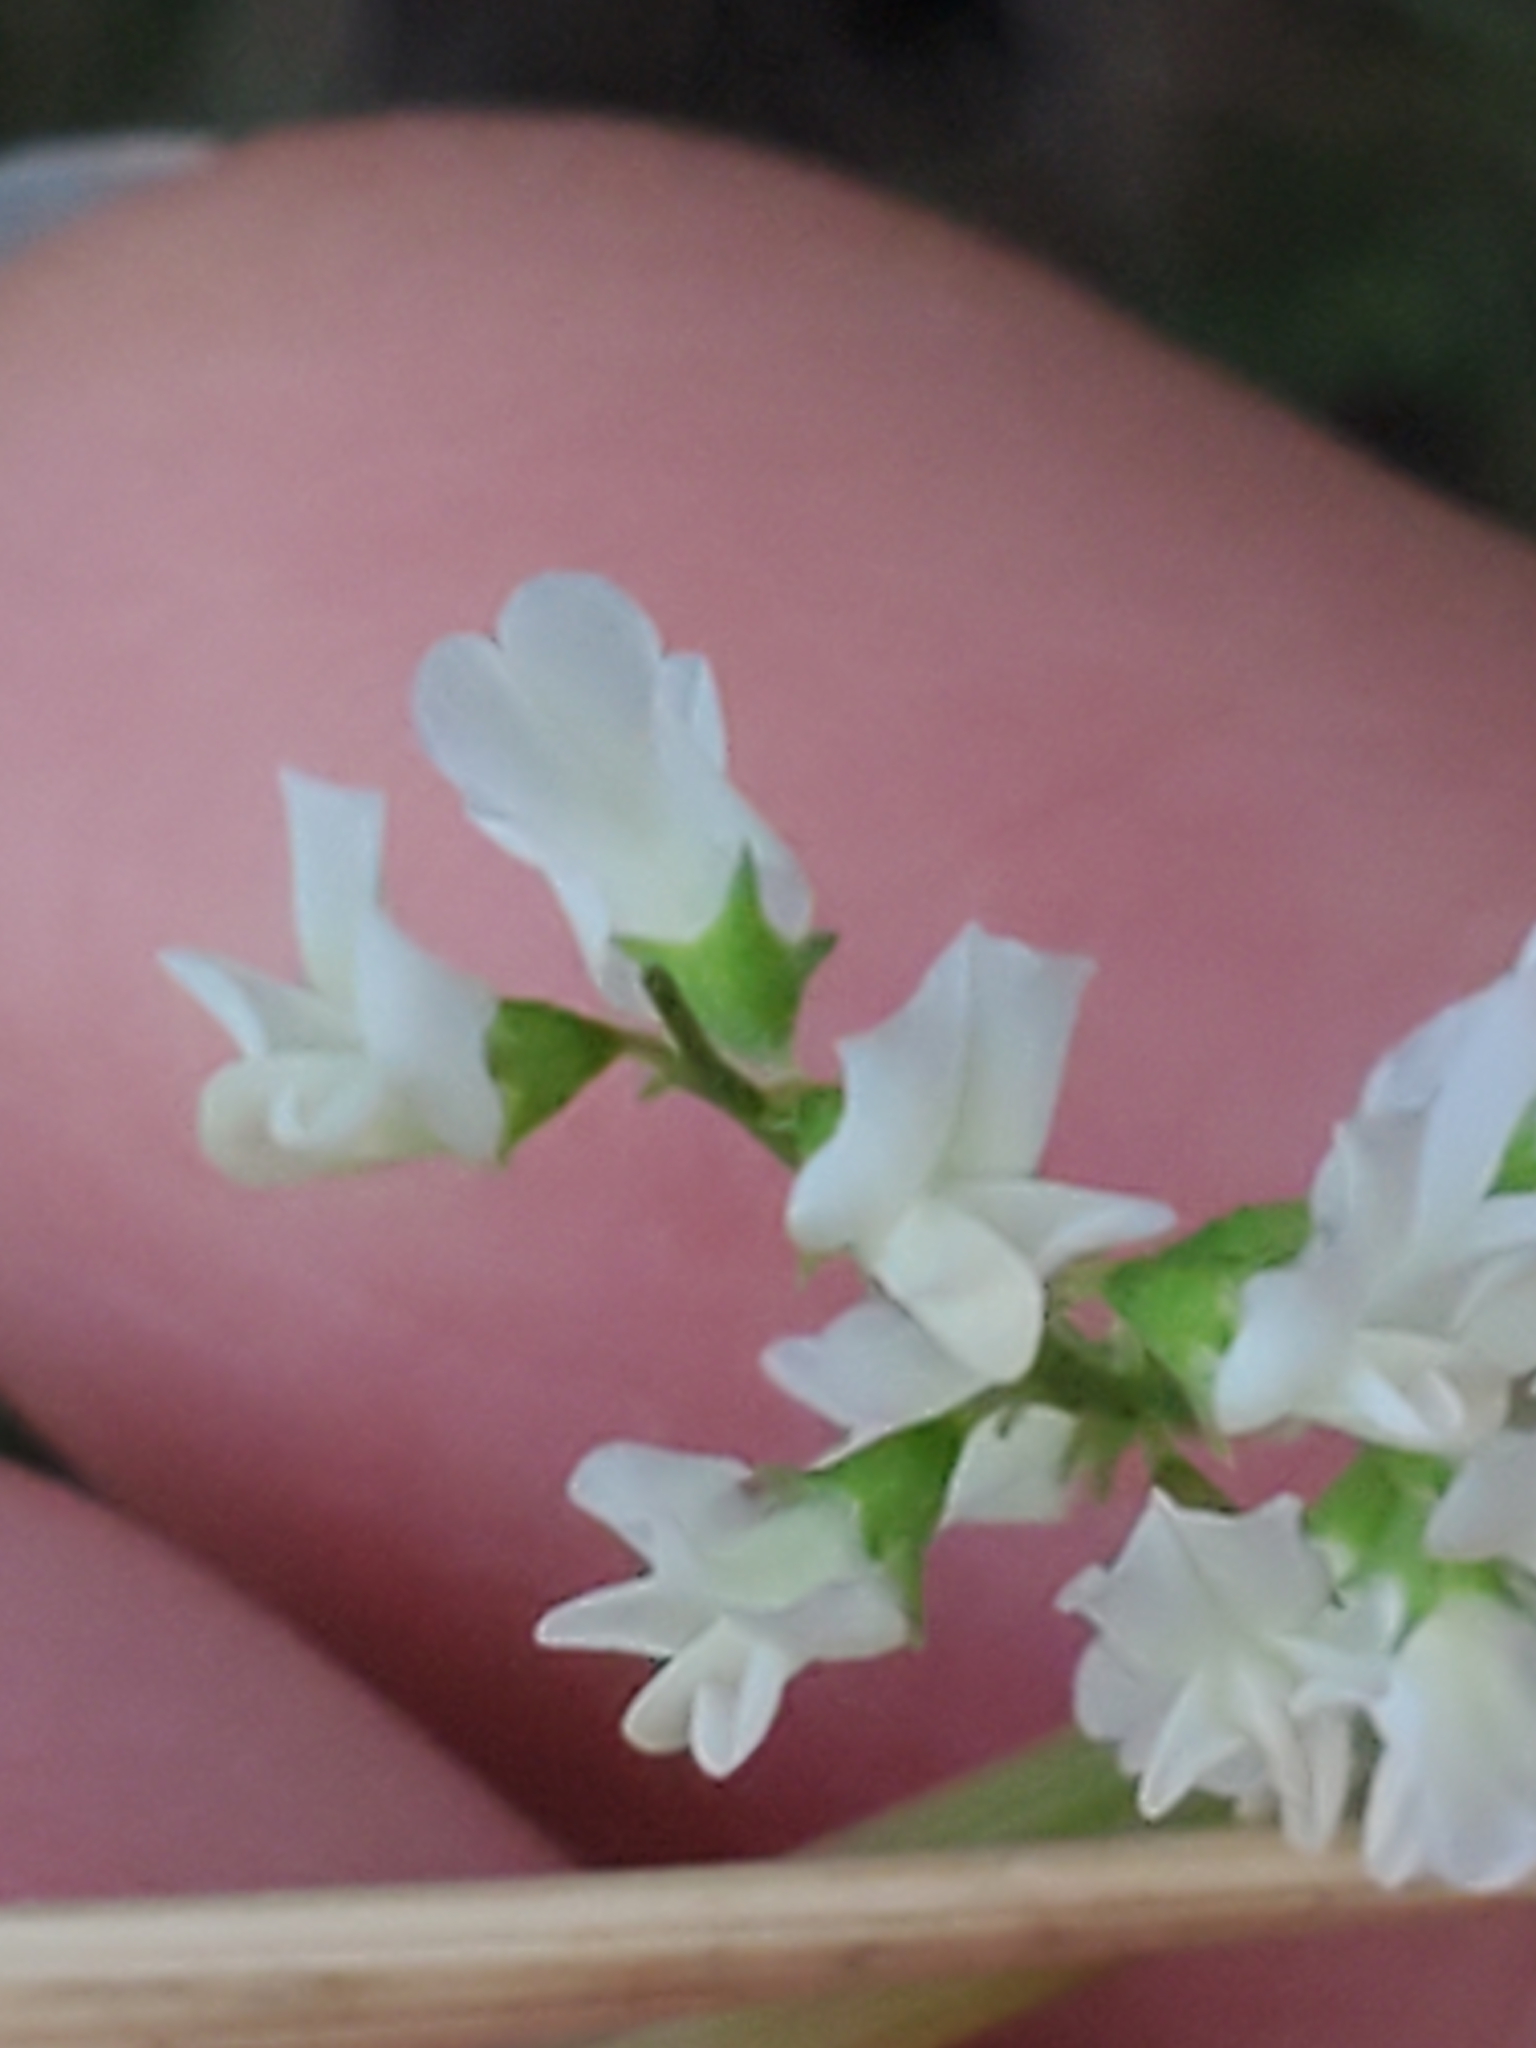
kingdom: Plantae
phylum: Tracheophyta
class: Magnoliopsida
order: Fabales
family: Fabaceae
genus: Melilotus
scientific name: Melilotus albus
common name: White melilot
